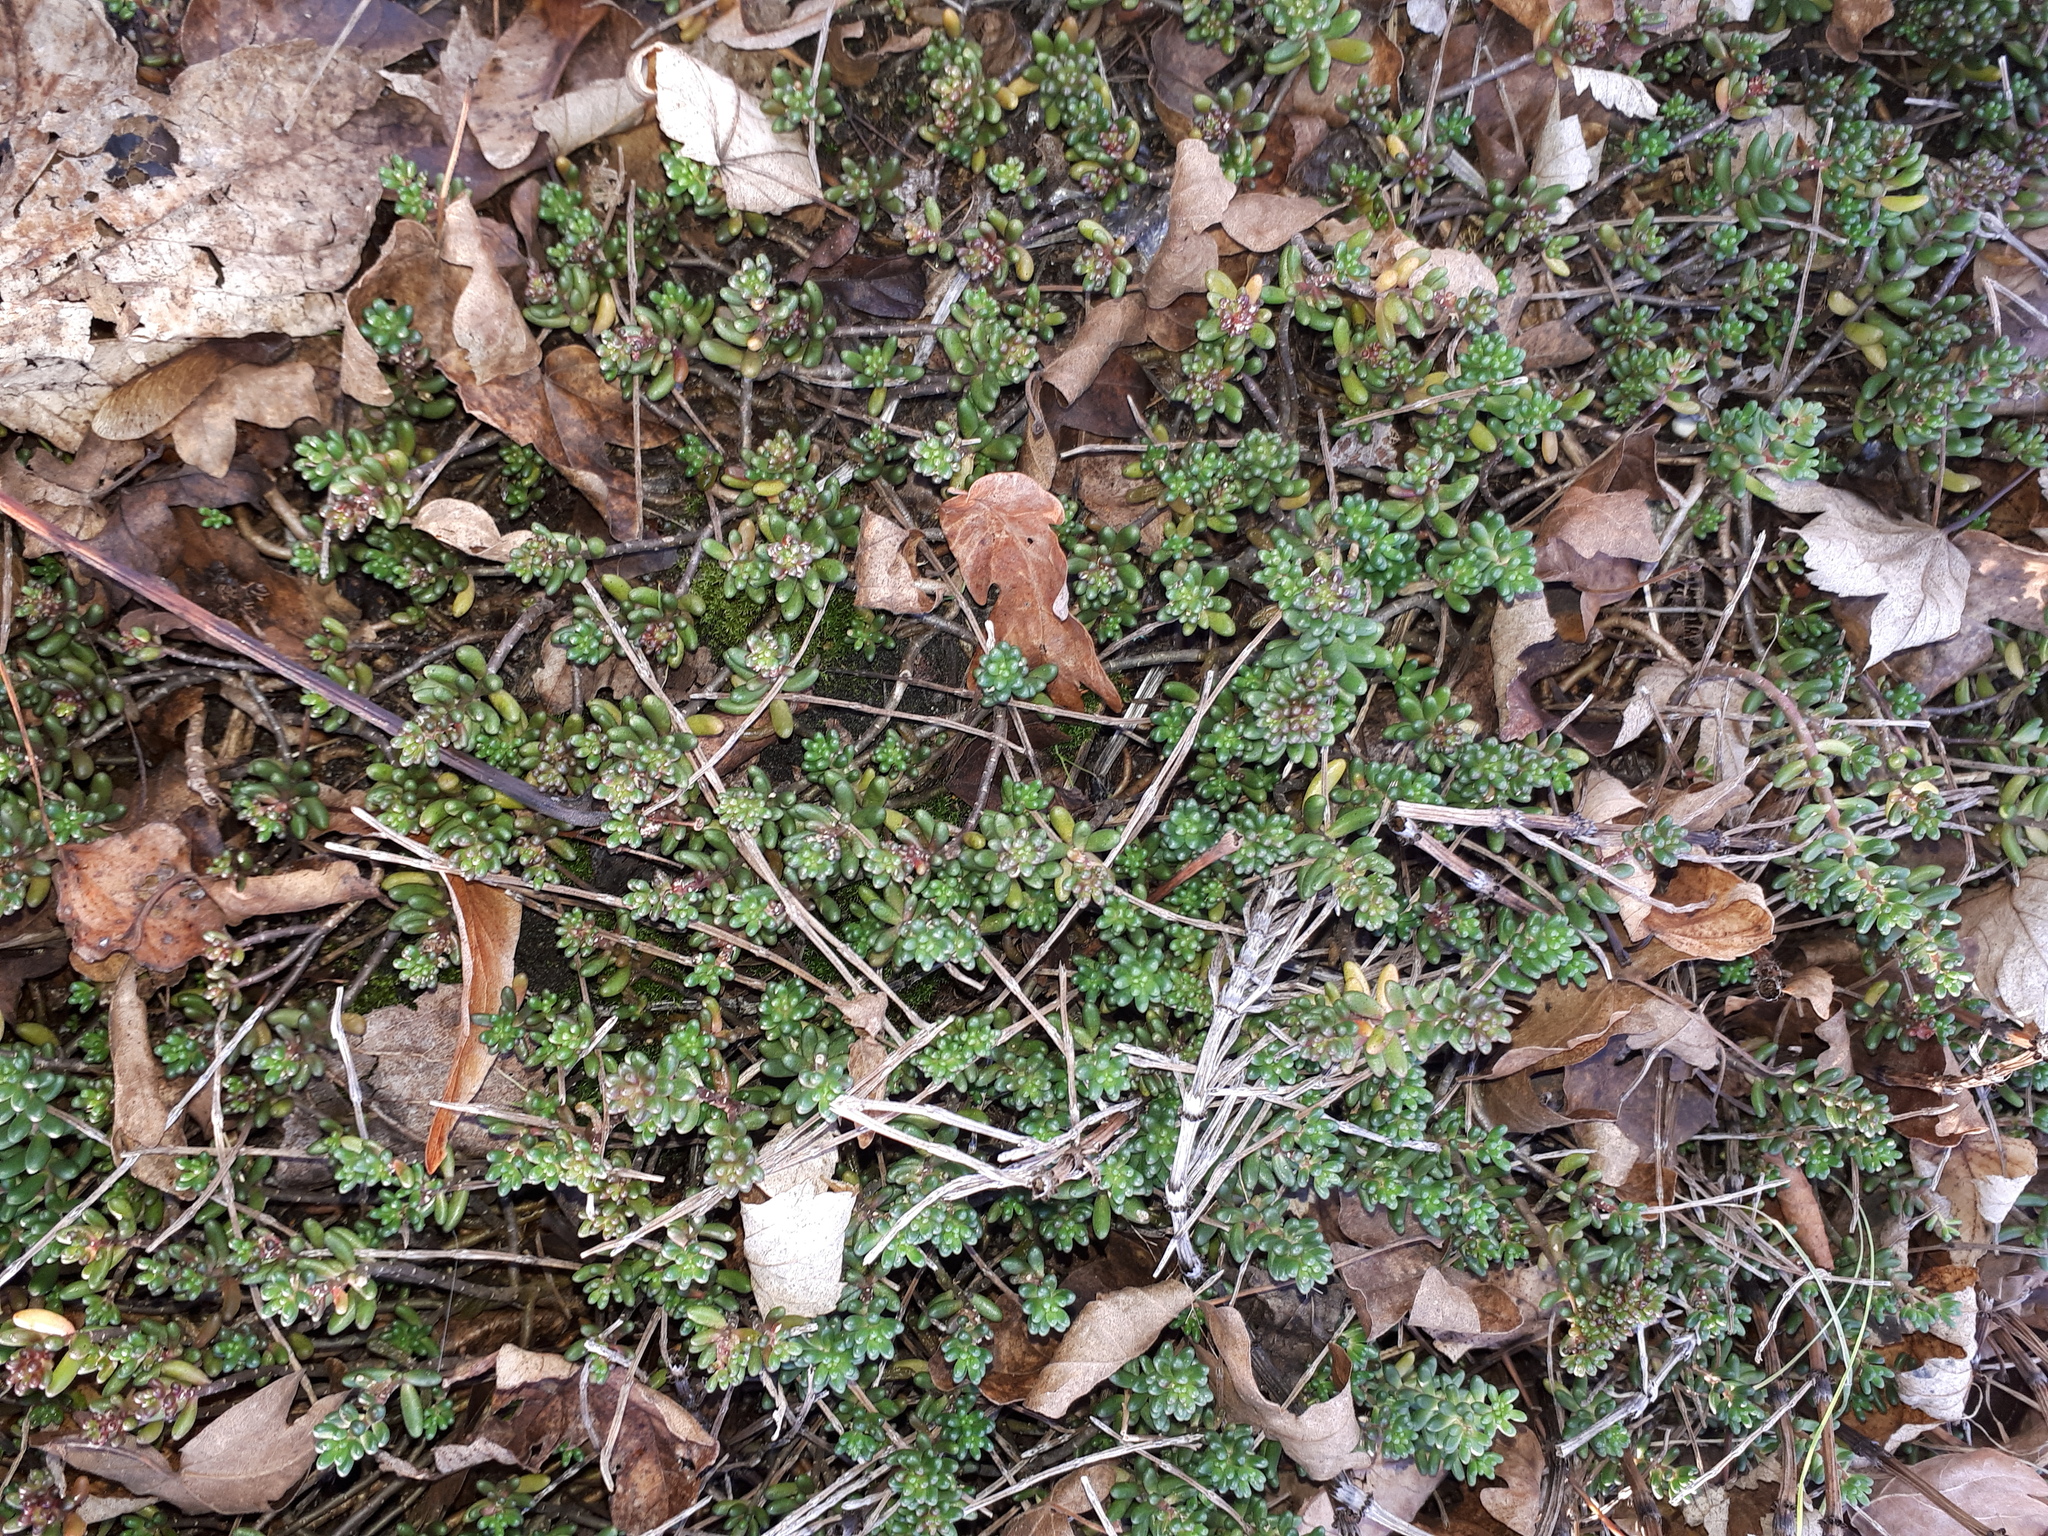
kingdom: Plantae
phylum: Tracheophyta
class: Magnoliopsida
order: Saxifragales
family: Crassulaceae
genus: Sedum
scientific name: Sedum album
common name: White stonecrop
